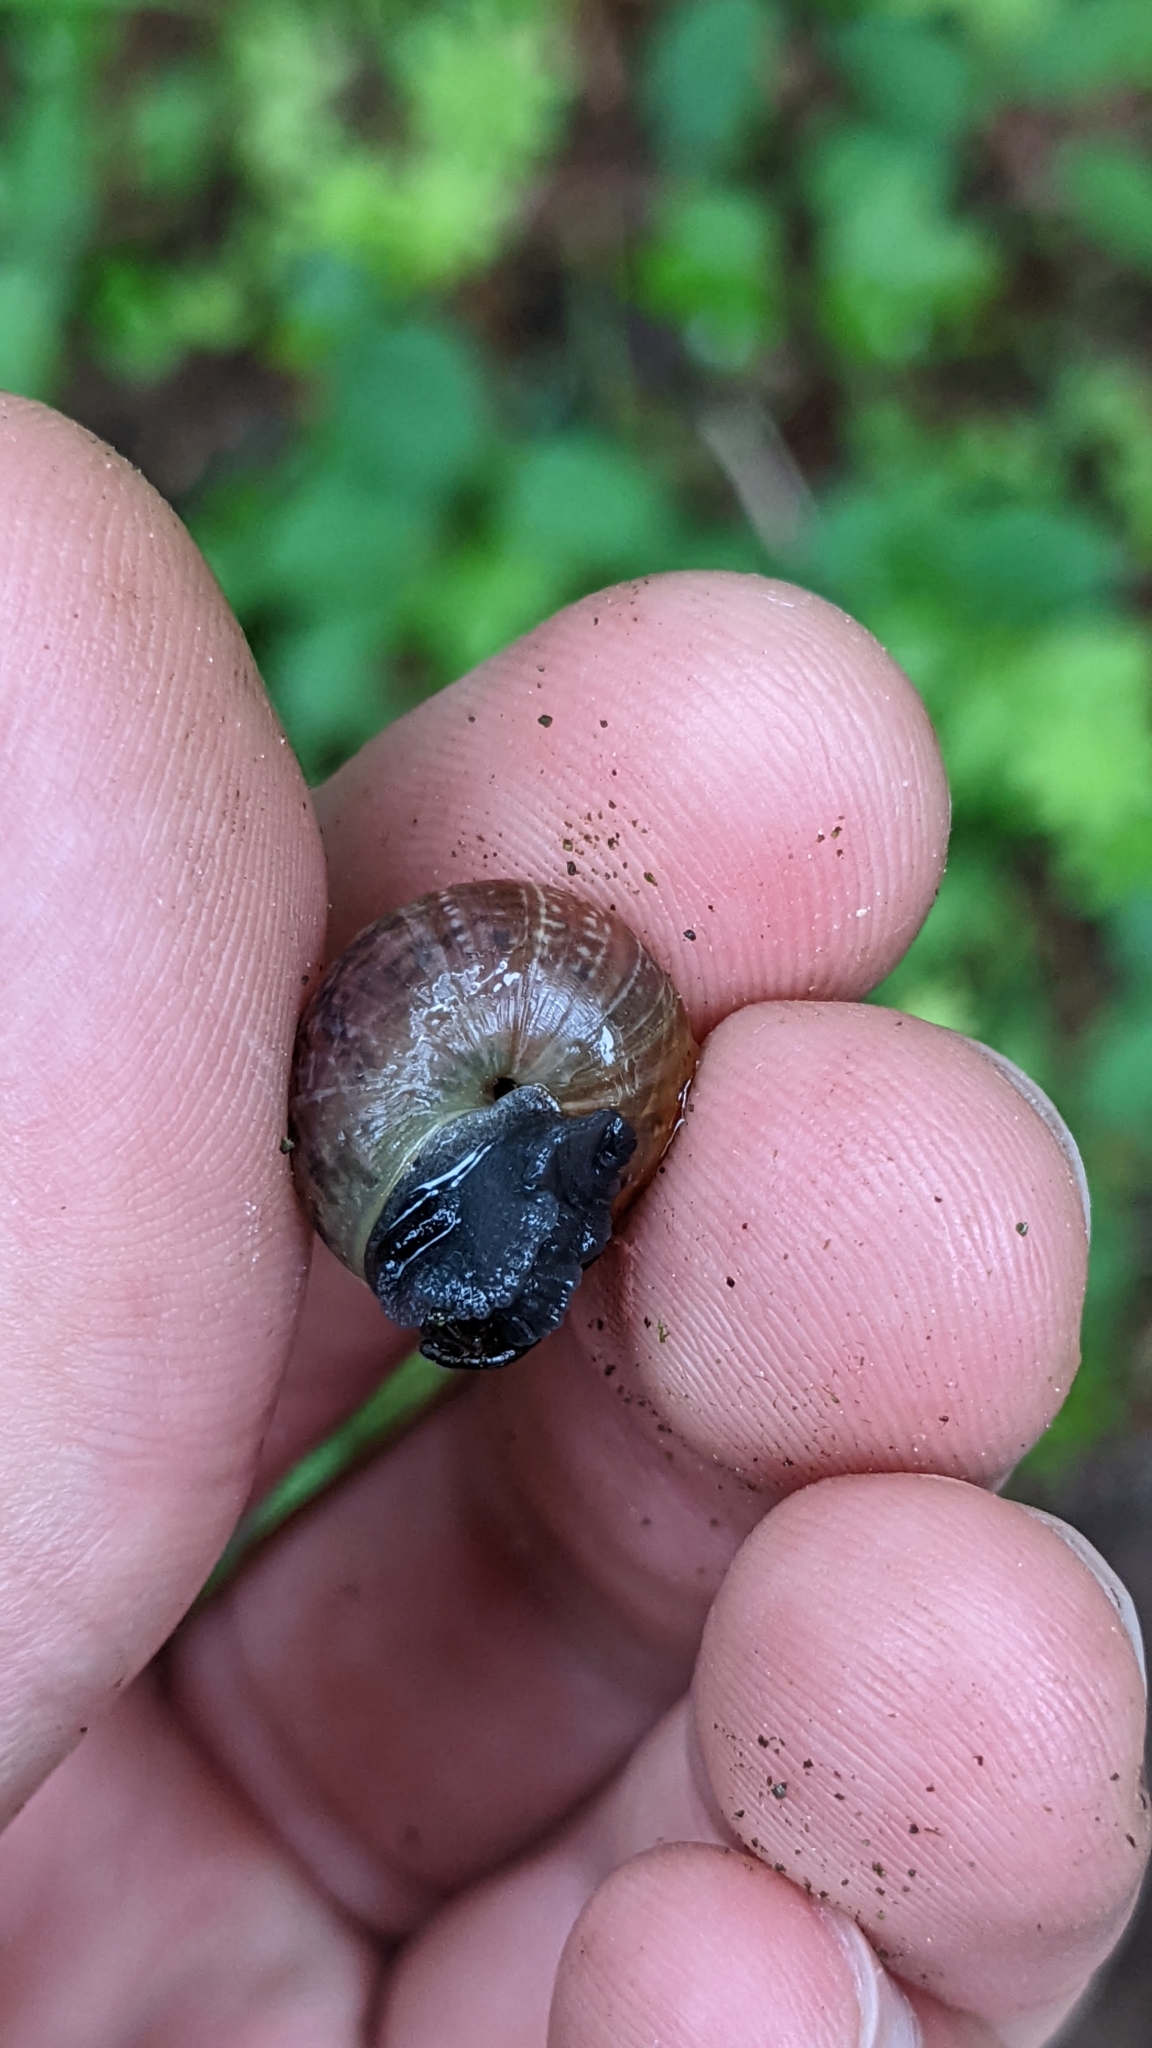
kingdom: Animalia
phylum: Mollusca
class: Gastropoda
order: Stylommatophora
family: Helicidae
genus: Arianta
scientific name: Arianta arbustorum
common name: Copse snail
